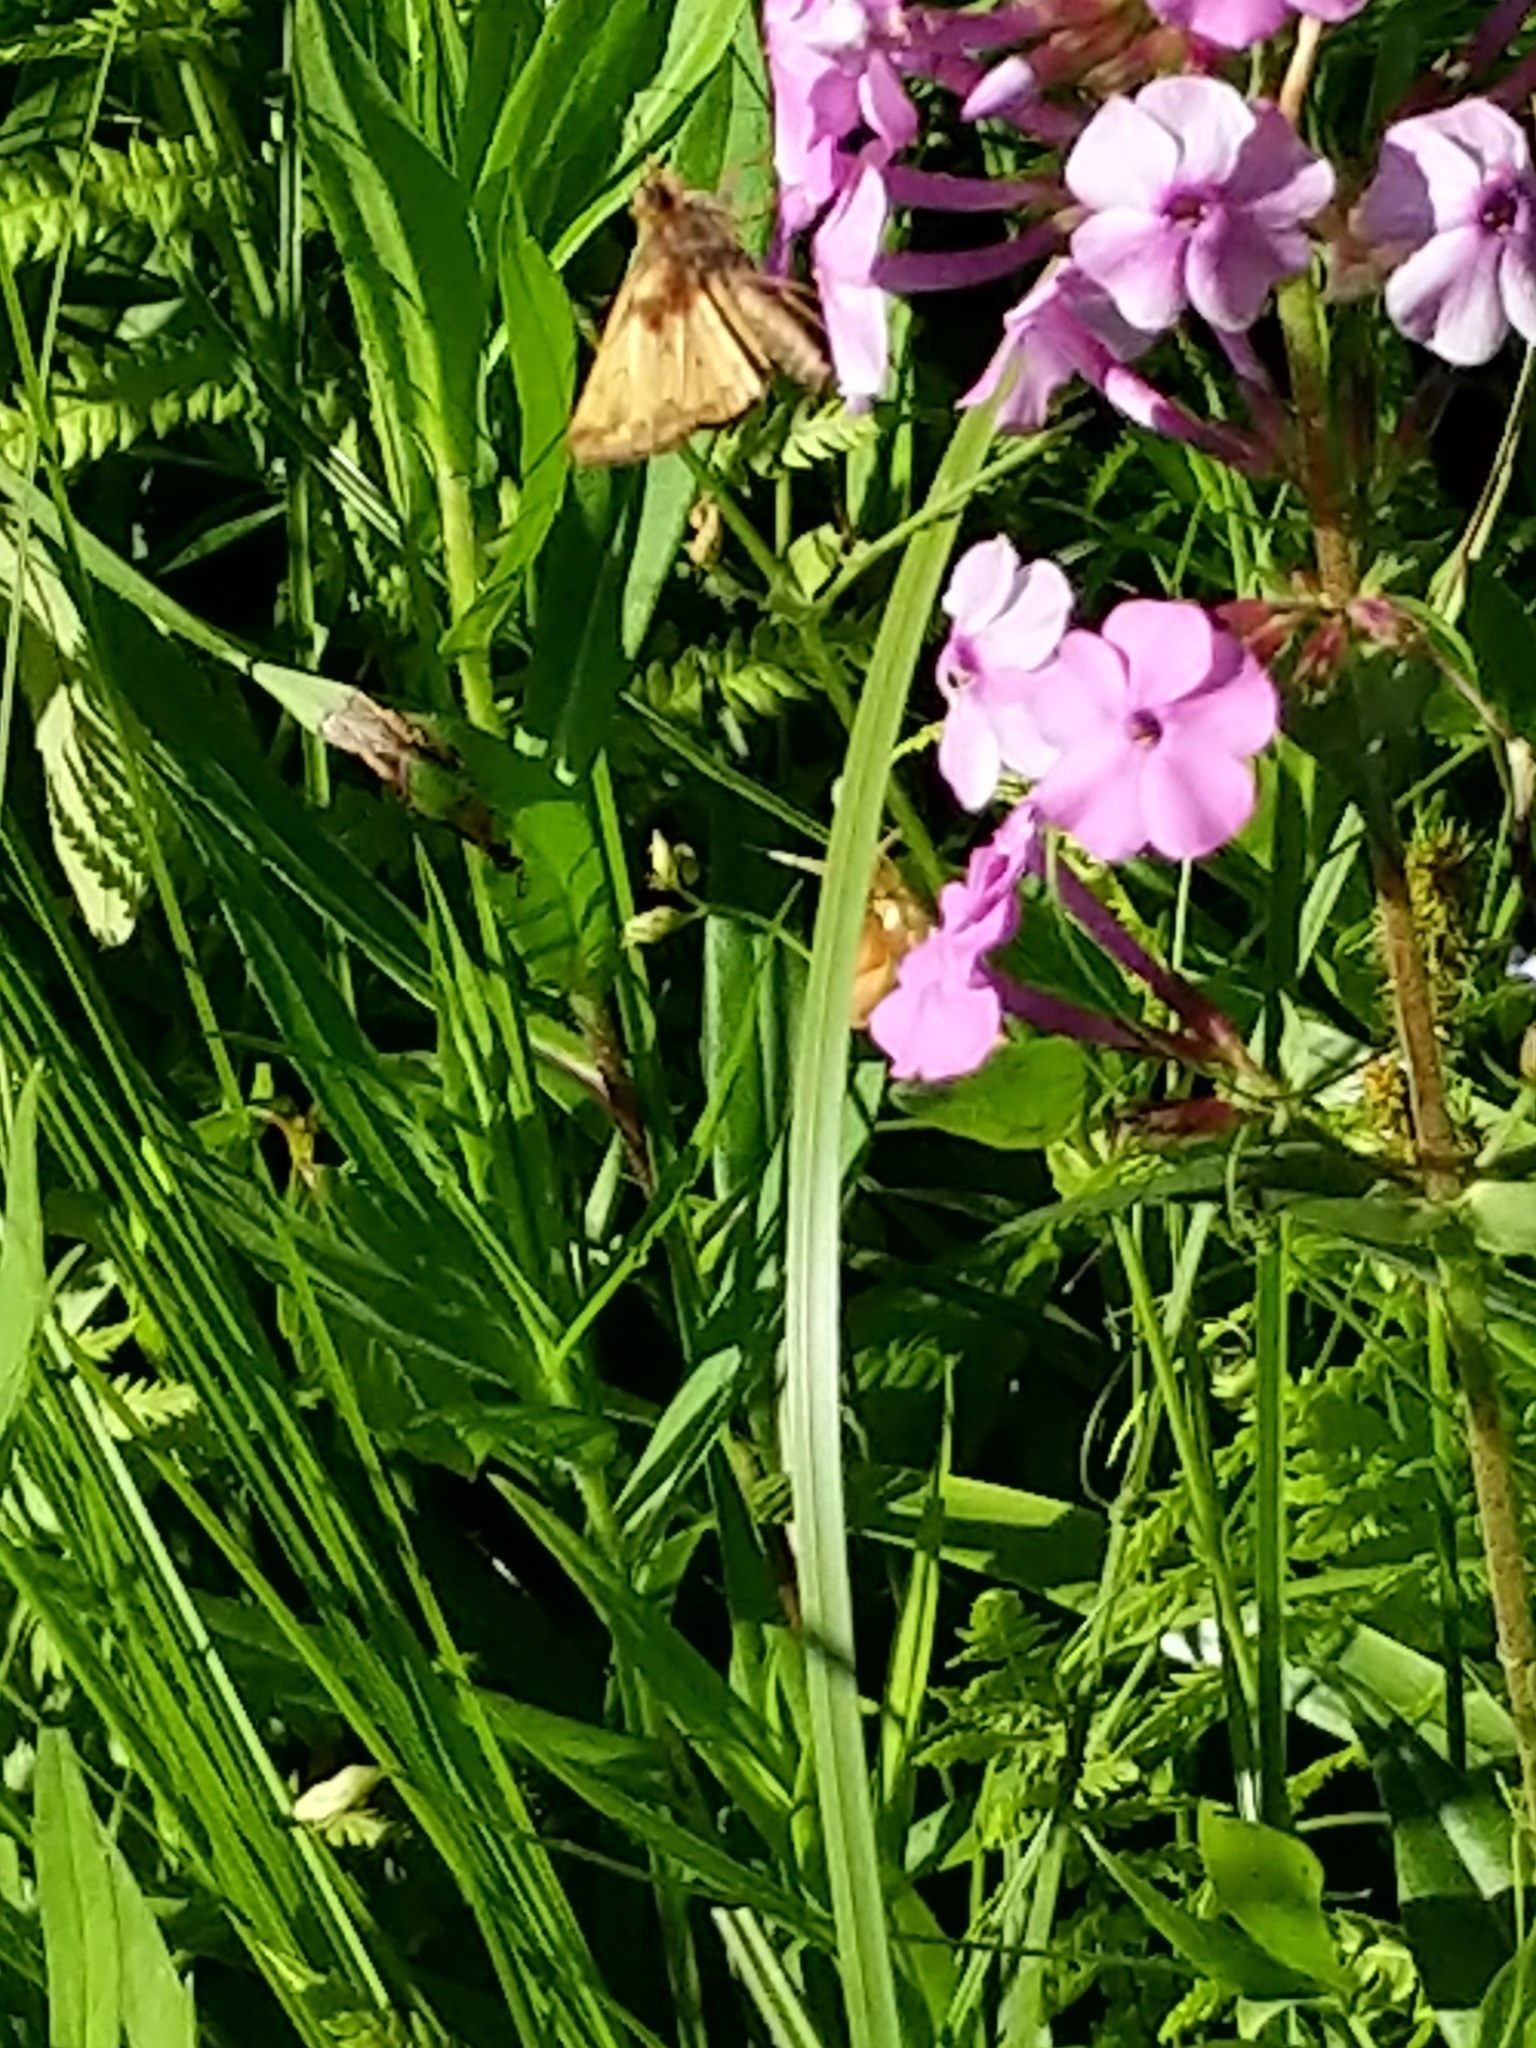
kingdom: Animalia
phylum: Arthropoda
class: Insecta
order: Lepidoptera
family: Hesperiidae
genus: Lon
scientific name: Lon zabulon
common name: Zabulon skipper
